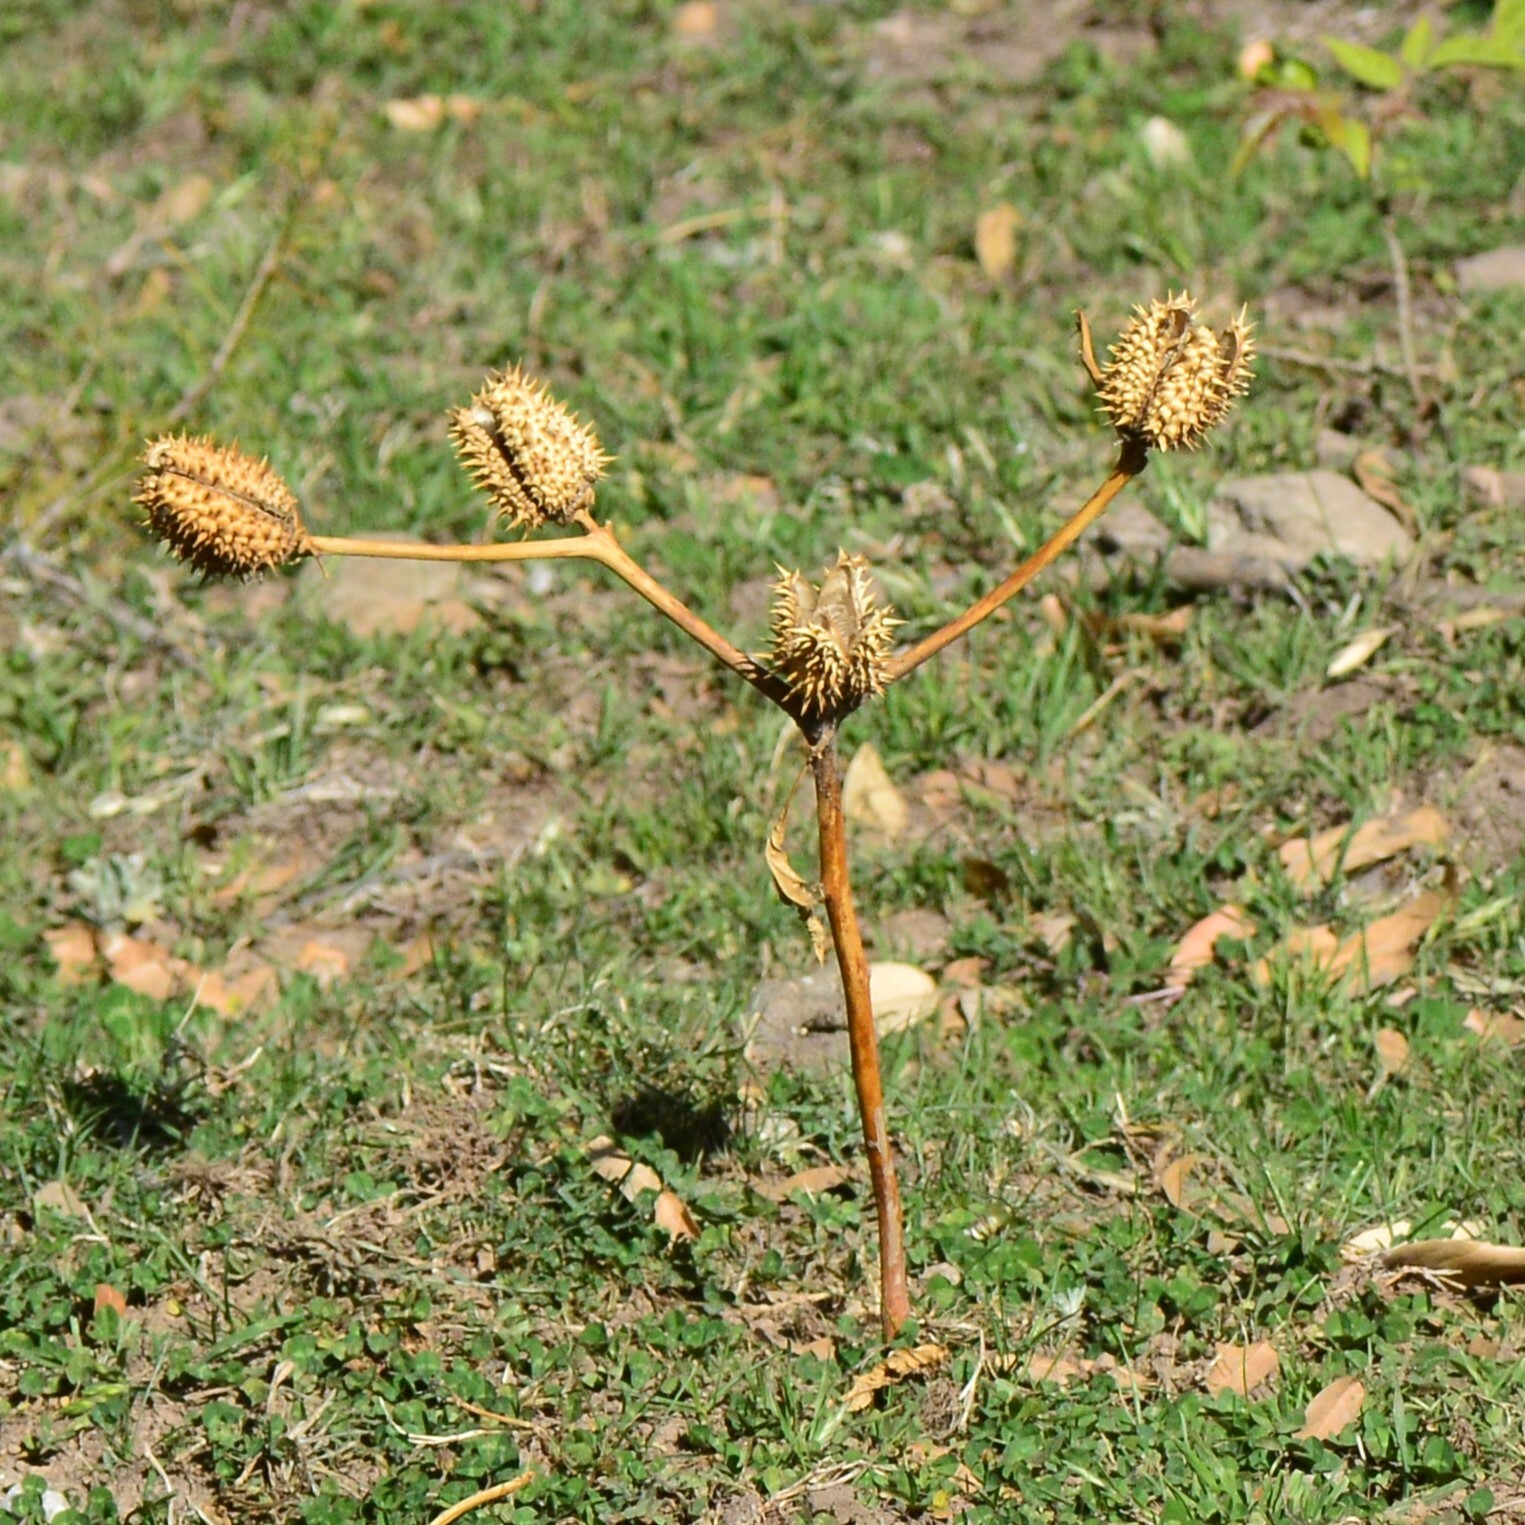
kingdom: Plantae
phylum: Tracheophyta
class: Magnoliopsida
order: Solanales
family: Solanaceae
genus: Datura
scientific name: Datura stramonium
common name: Thorn-apple
